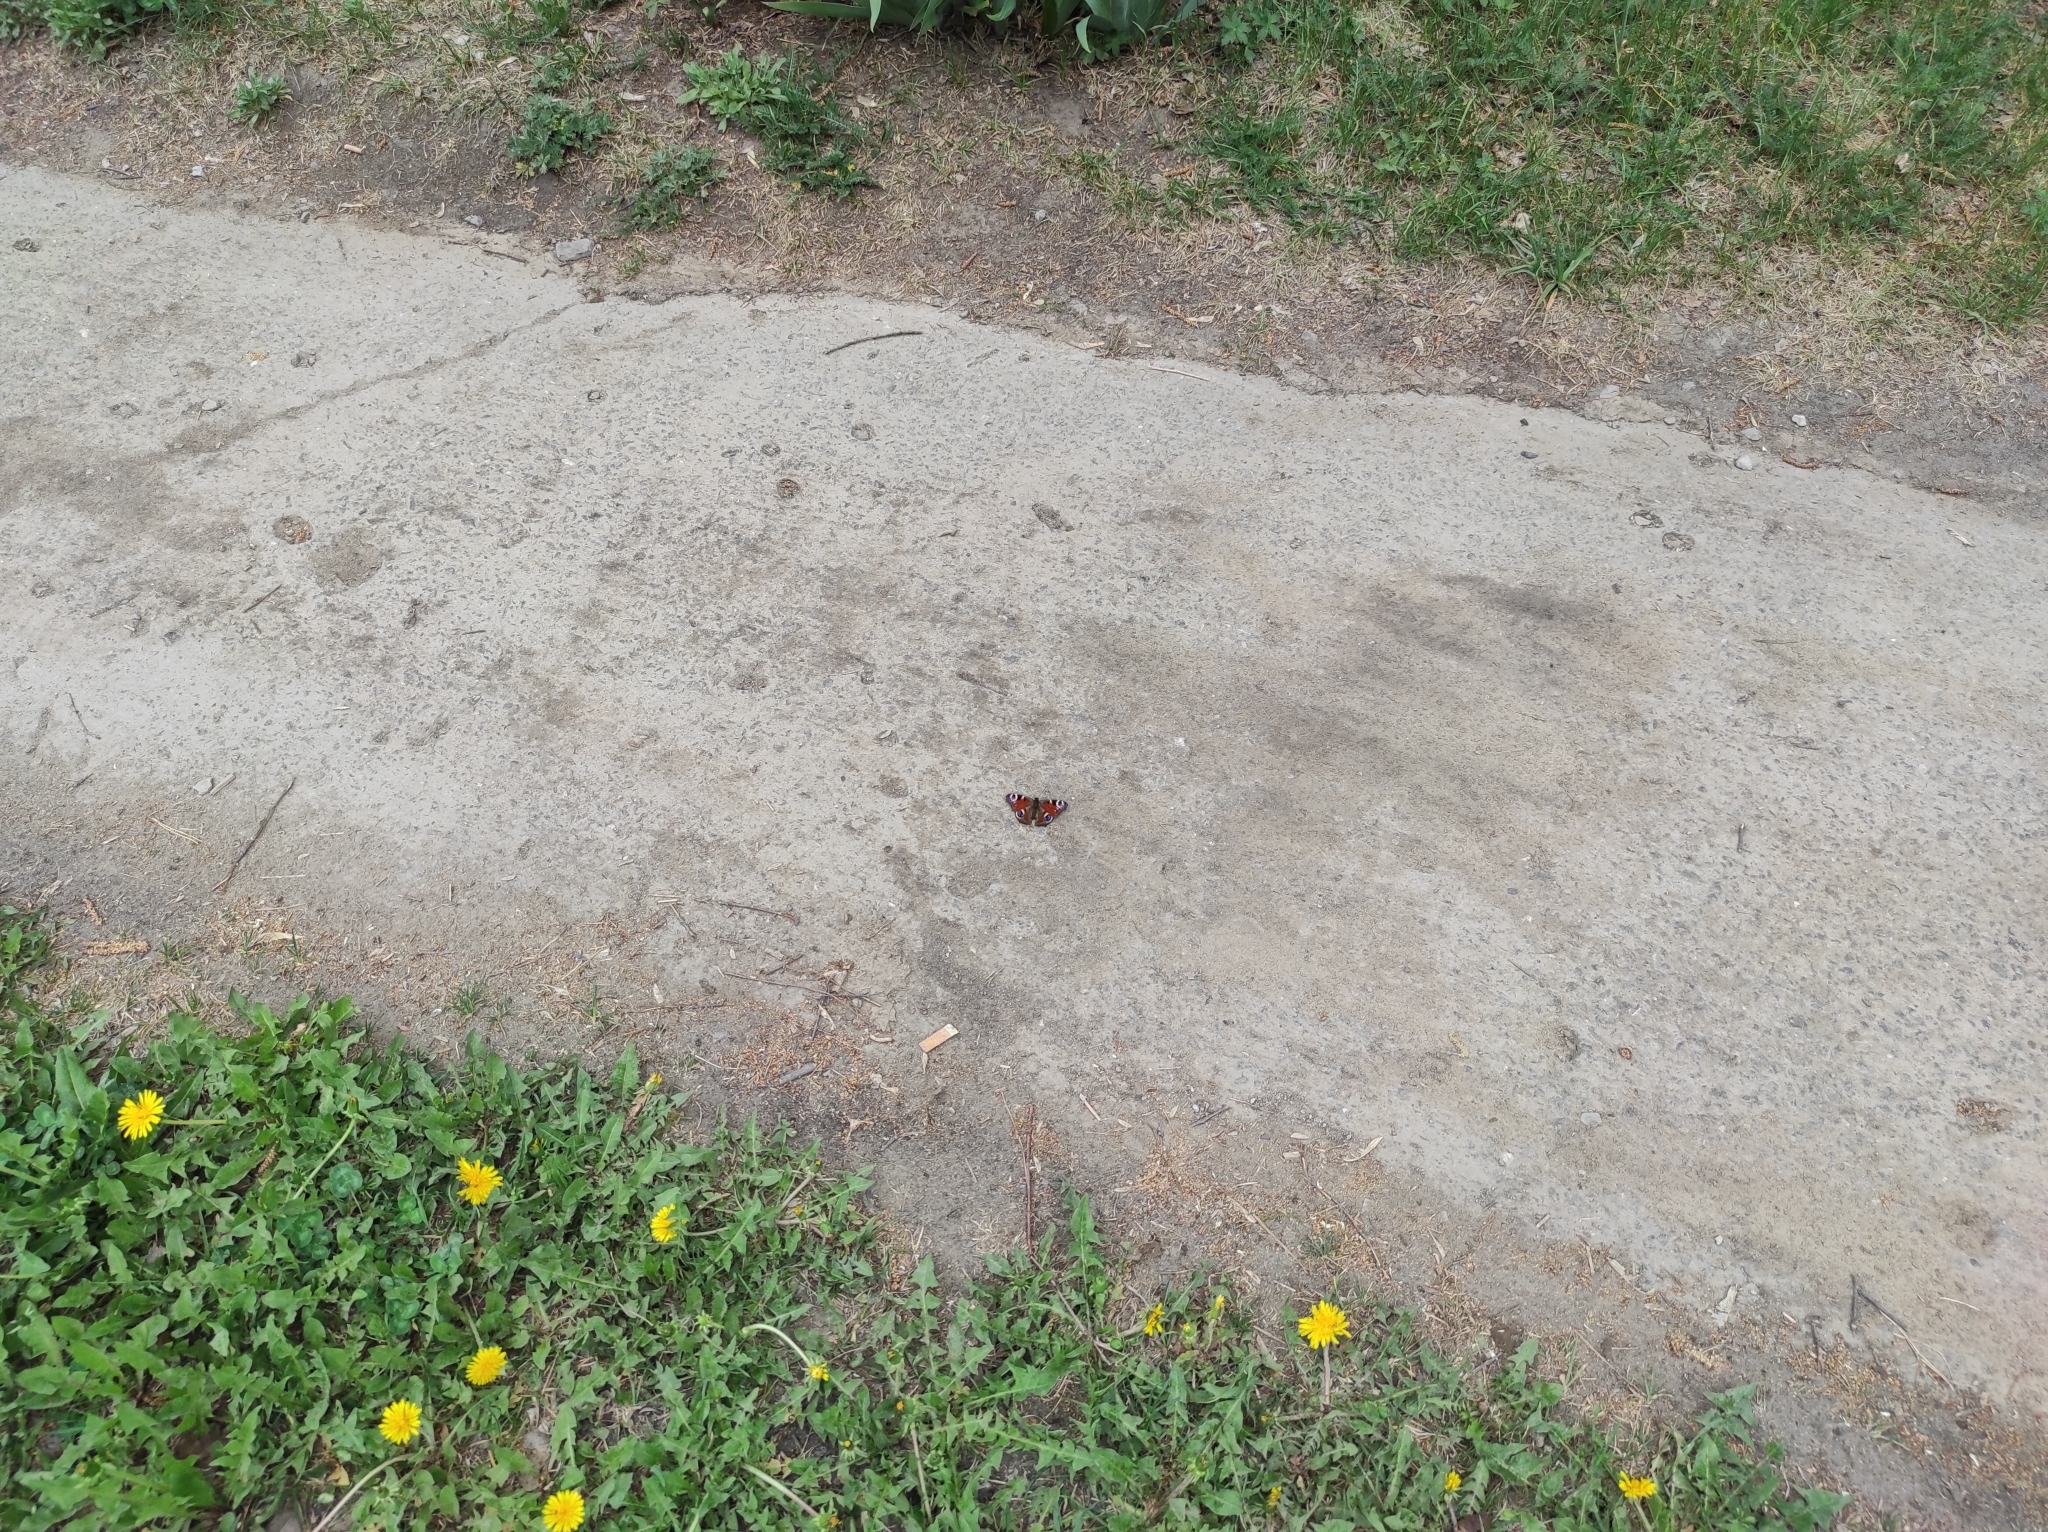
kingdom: Animalia
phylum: Arthropoda
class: Insecta
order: Lepidoptera
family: Nymphalidae
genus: Aglais
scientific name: Aglais io
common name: Peacock
